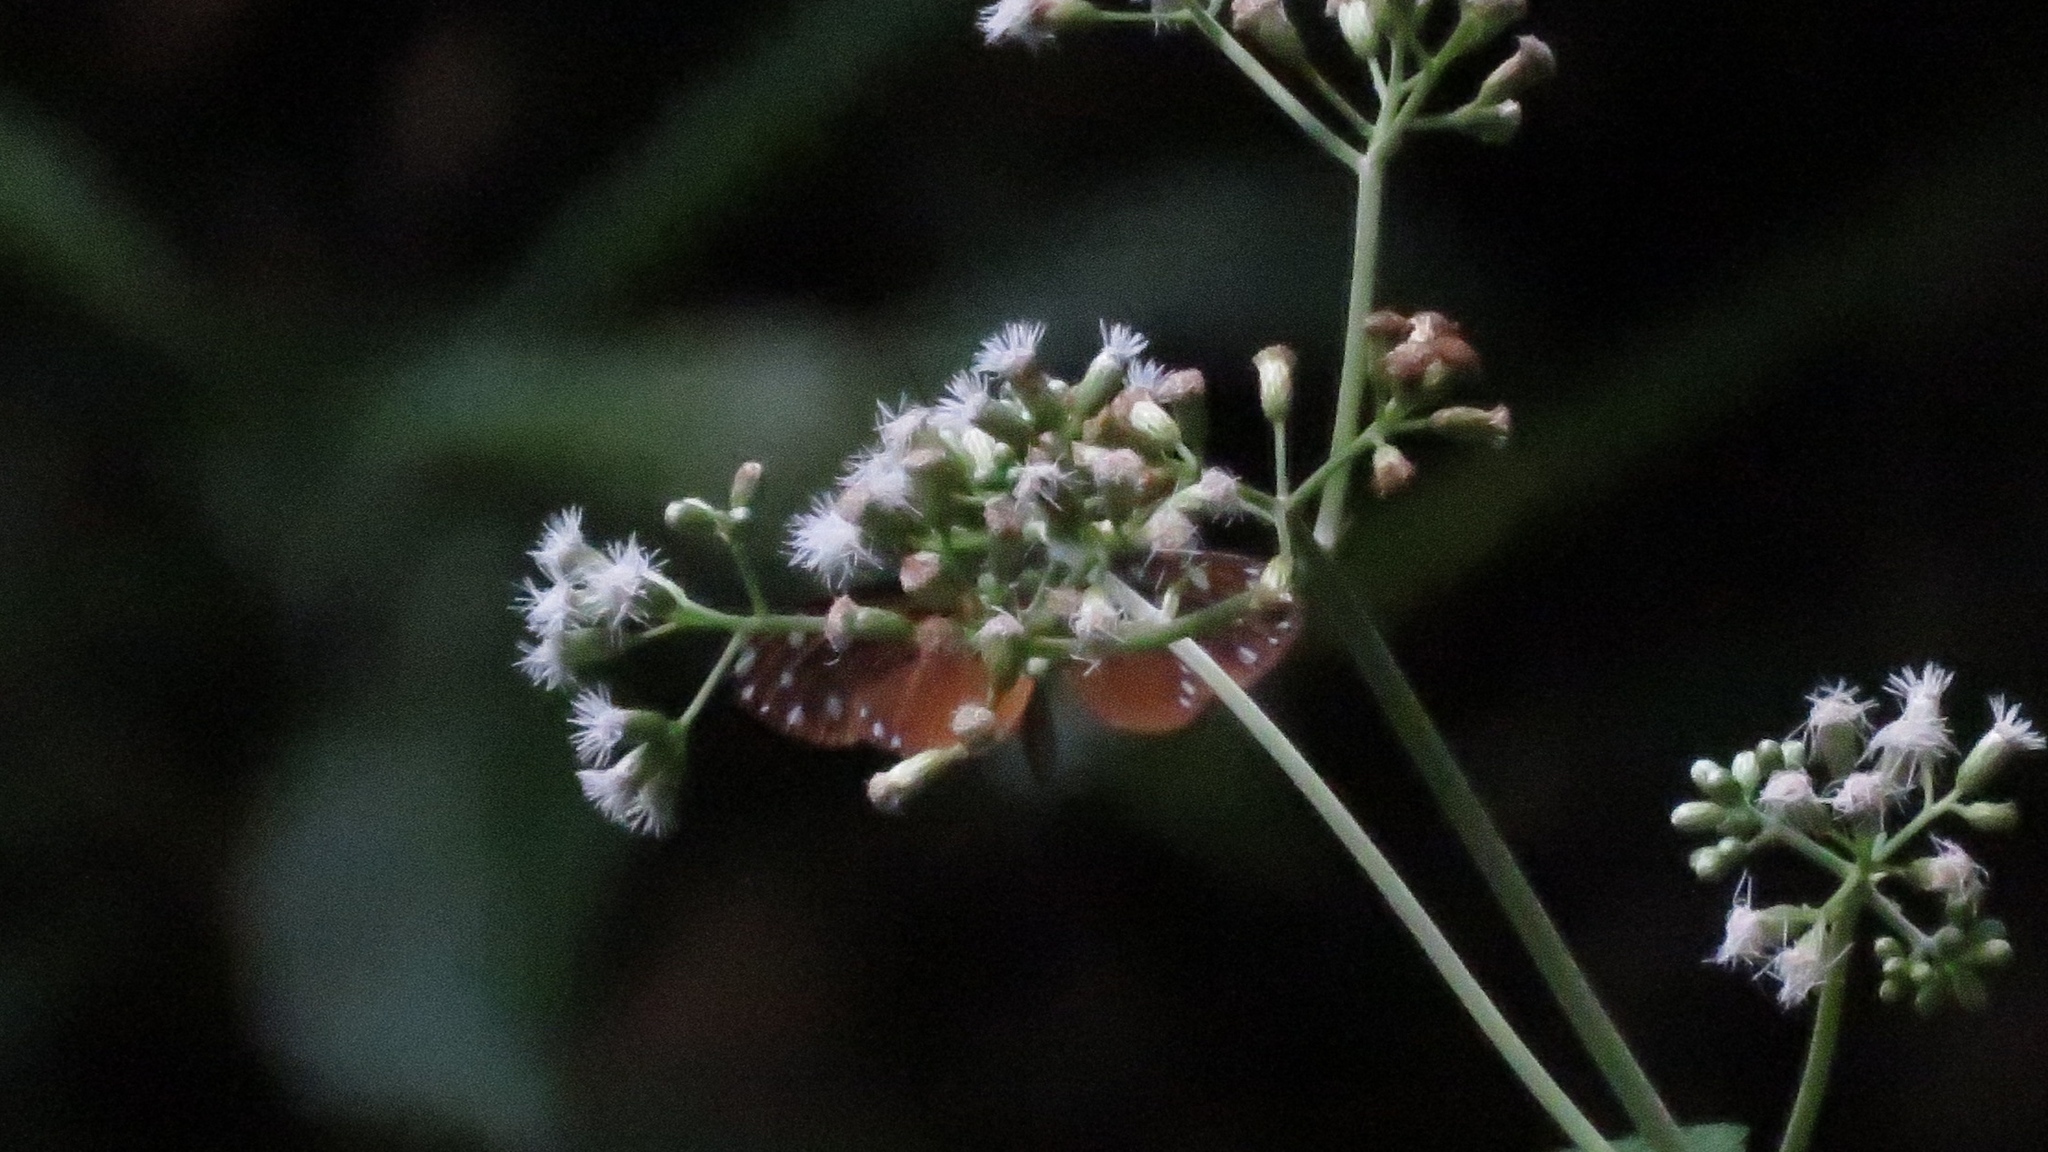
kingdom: Animalia
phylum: Arthropoda
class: Insecta
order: Lepidoptera
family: Nymphalidae
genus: Hyposcada
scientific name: Hyposcada virginiana
